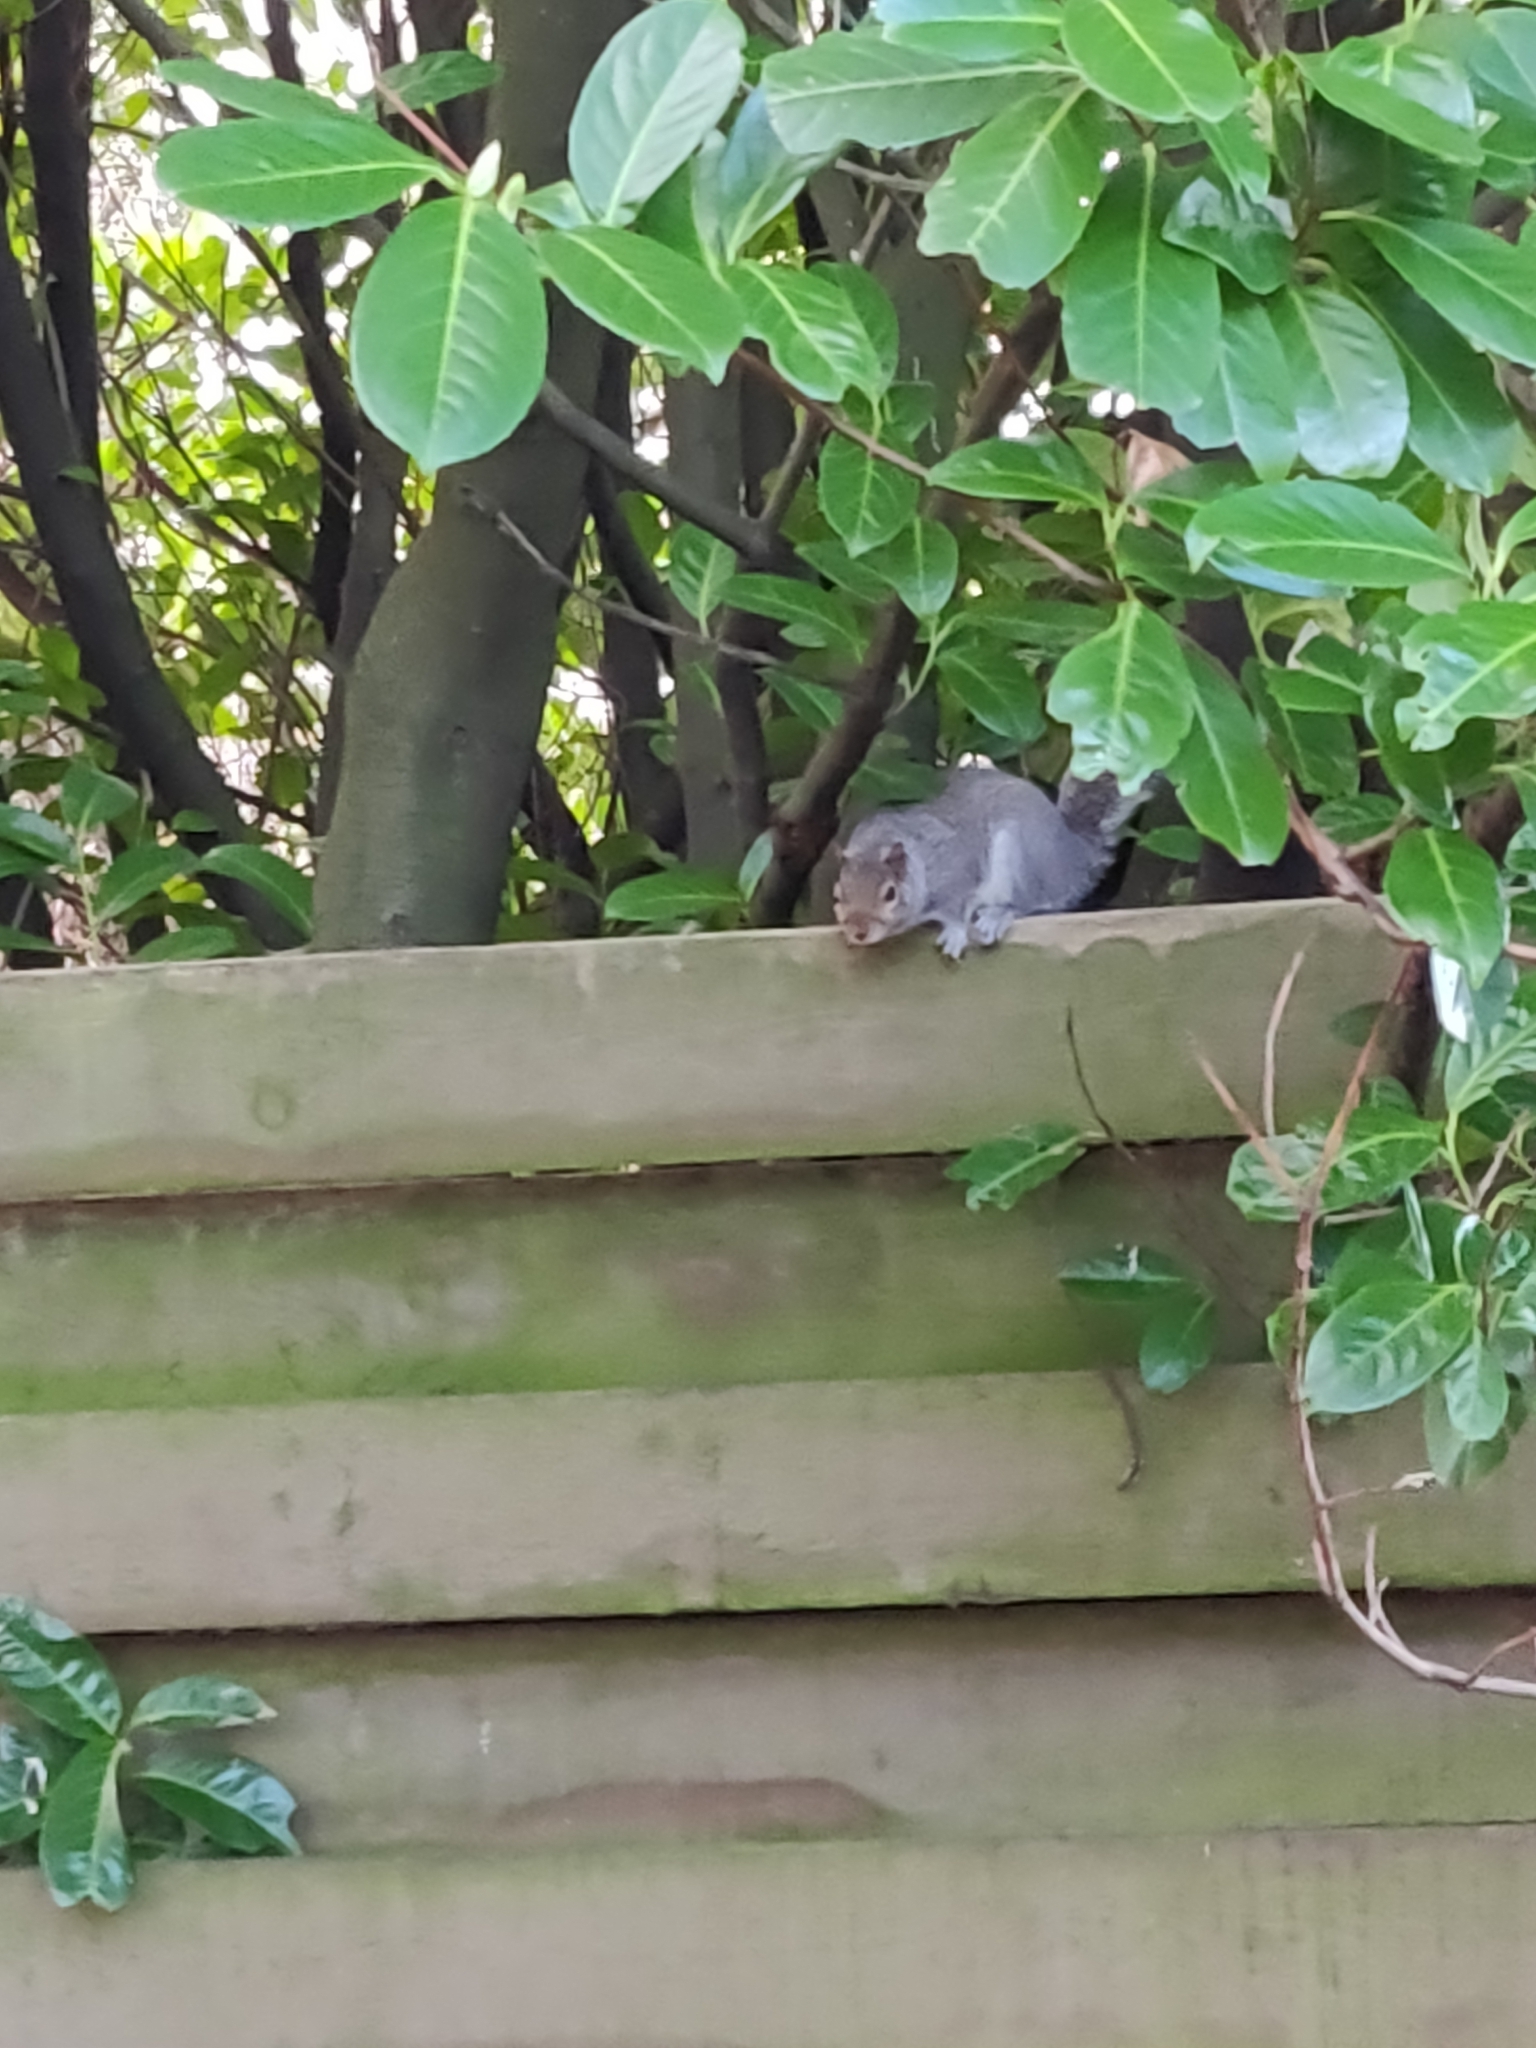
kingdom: Animalia
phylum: Chordata
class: Mammalia
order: Rodentia
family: Sciuridae
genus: Sciurus
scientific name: Sciurus carolinensis
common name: Eastern gray squirrel
